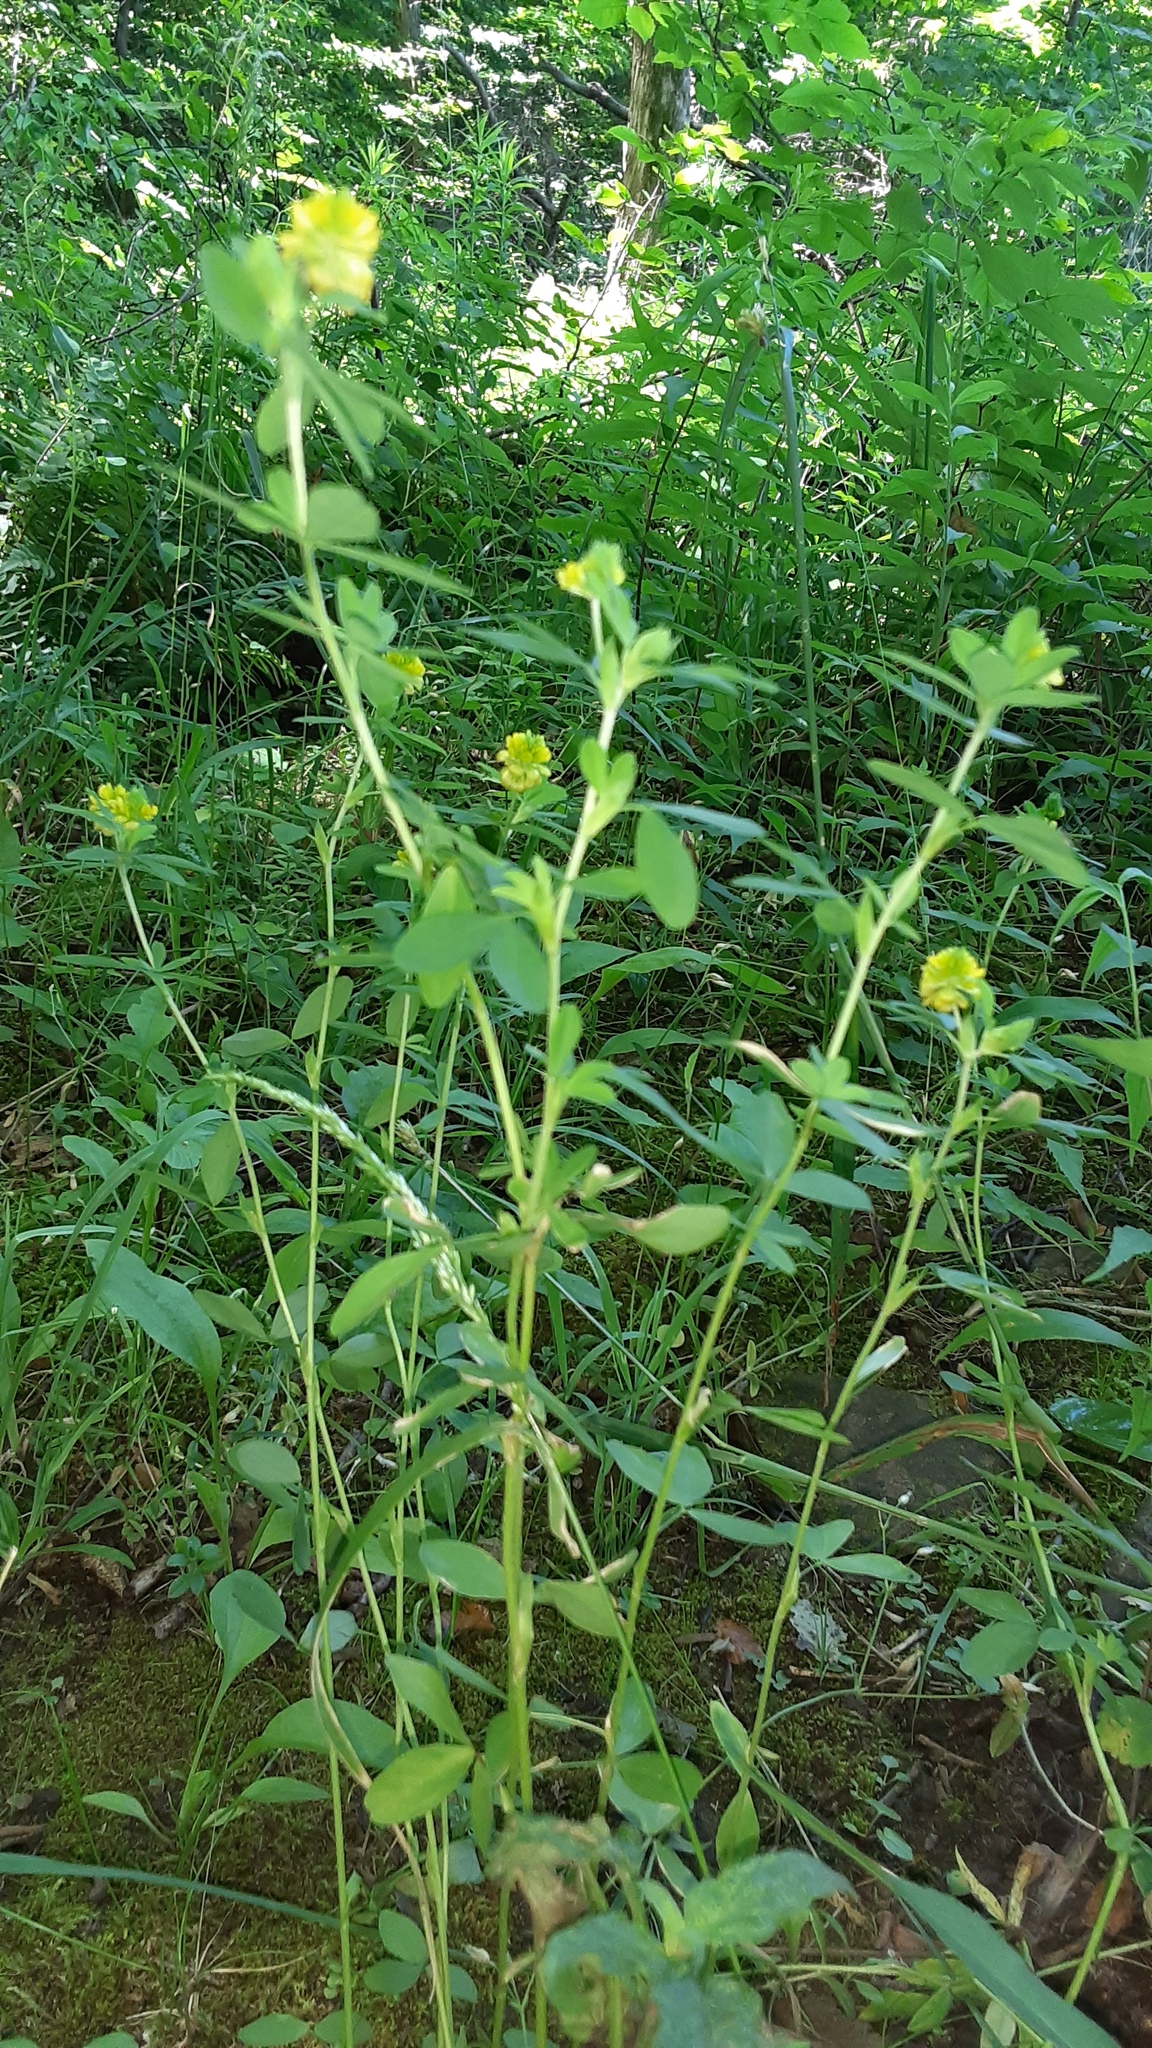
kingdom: Plantae
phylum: Tracheophyta
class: Magnoliopsida
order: Fabales
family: Fabaceae
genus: Trifolium
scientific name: Trifolium aureum
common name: Golden clover
